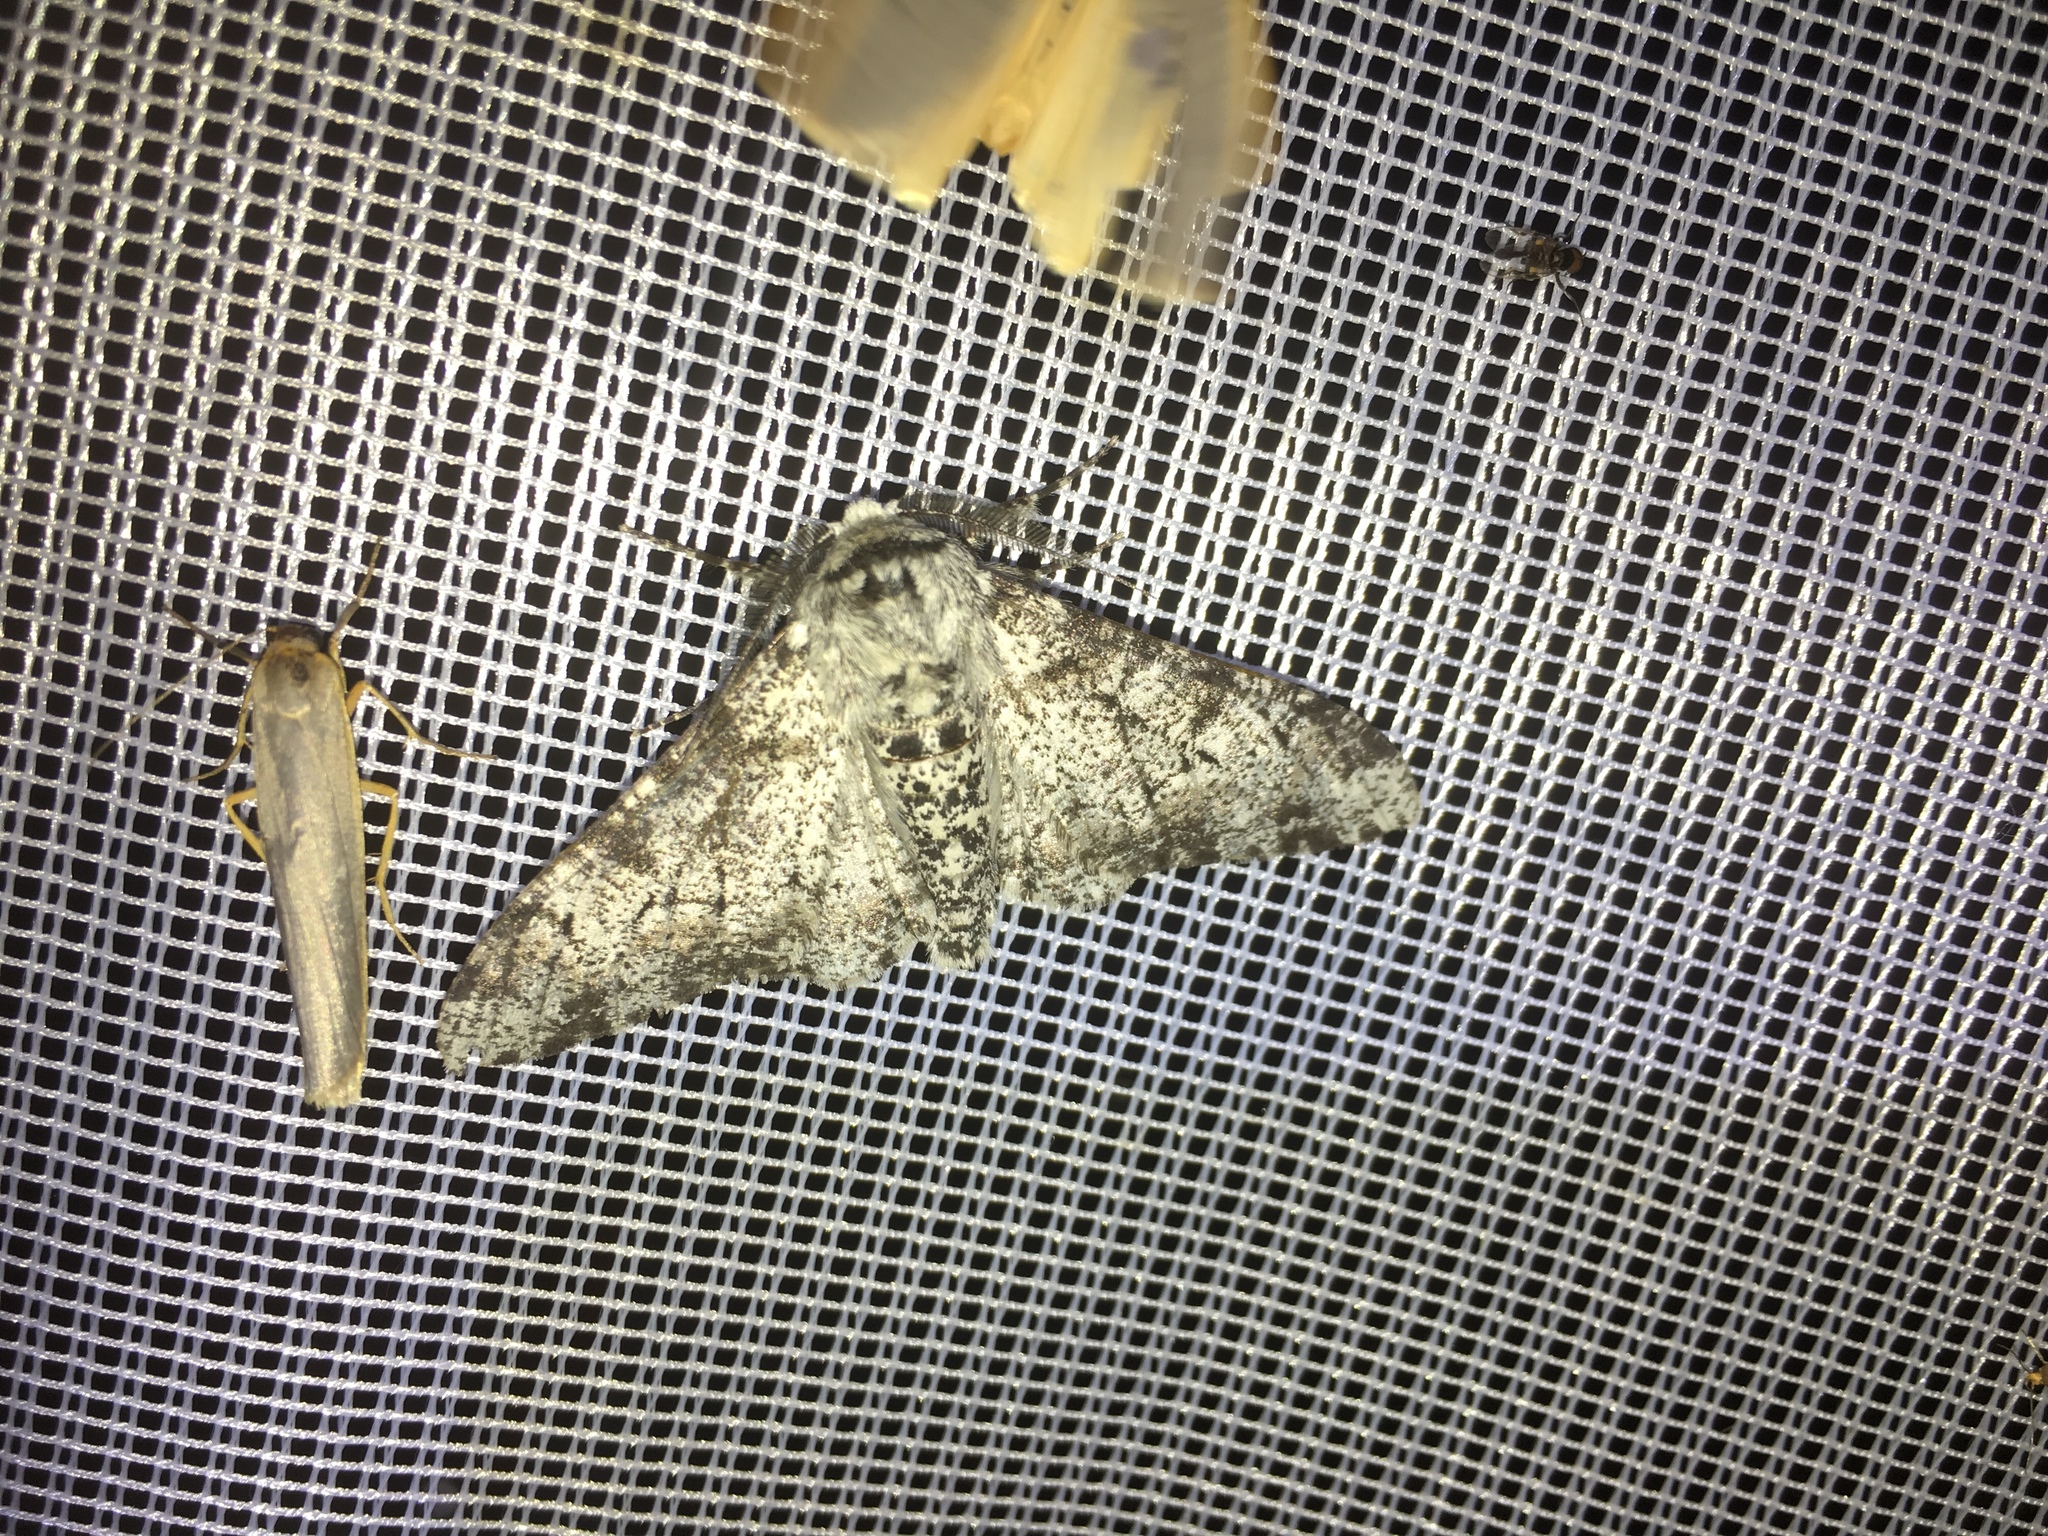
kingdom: Animalia
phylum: Arthropoda
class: Insecta
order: Lepidoptera
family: Geometridae
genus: Biston
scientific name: Biston betularia
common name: Peppered moth
